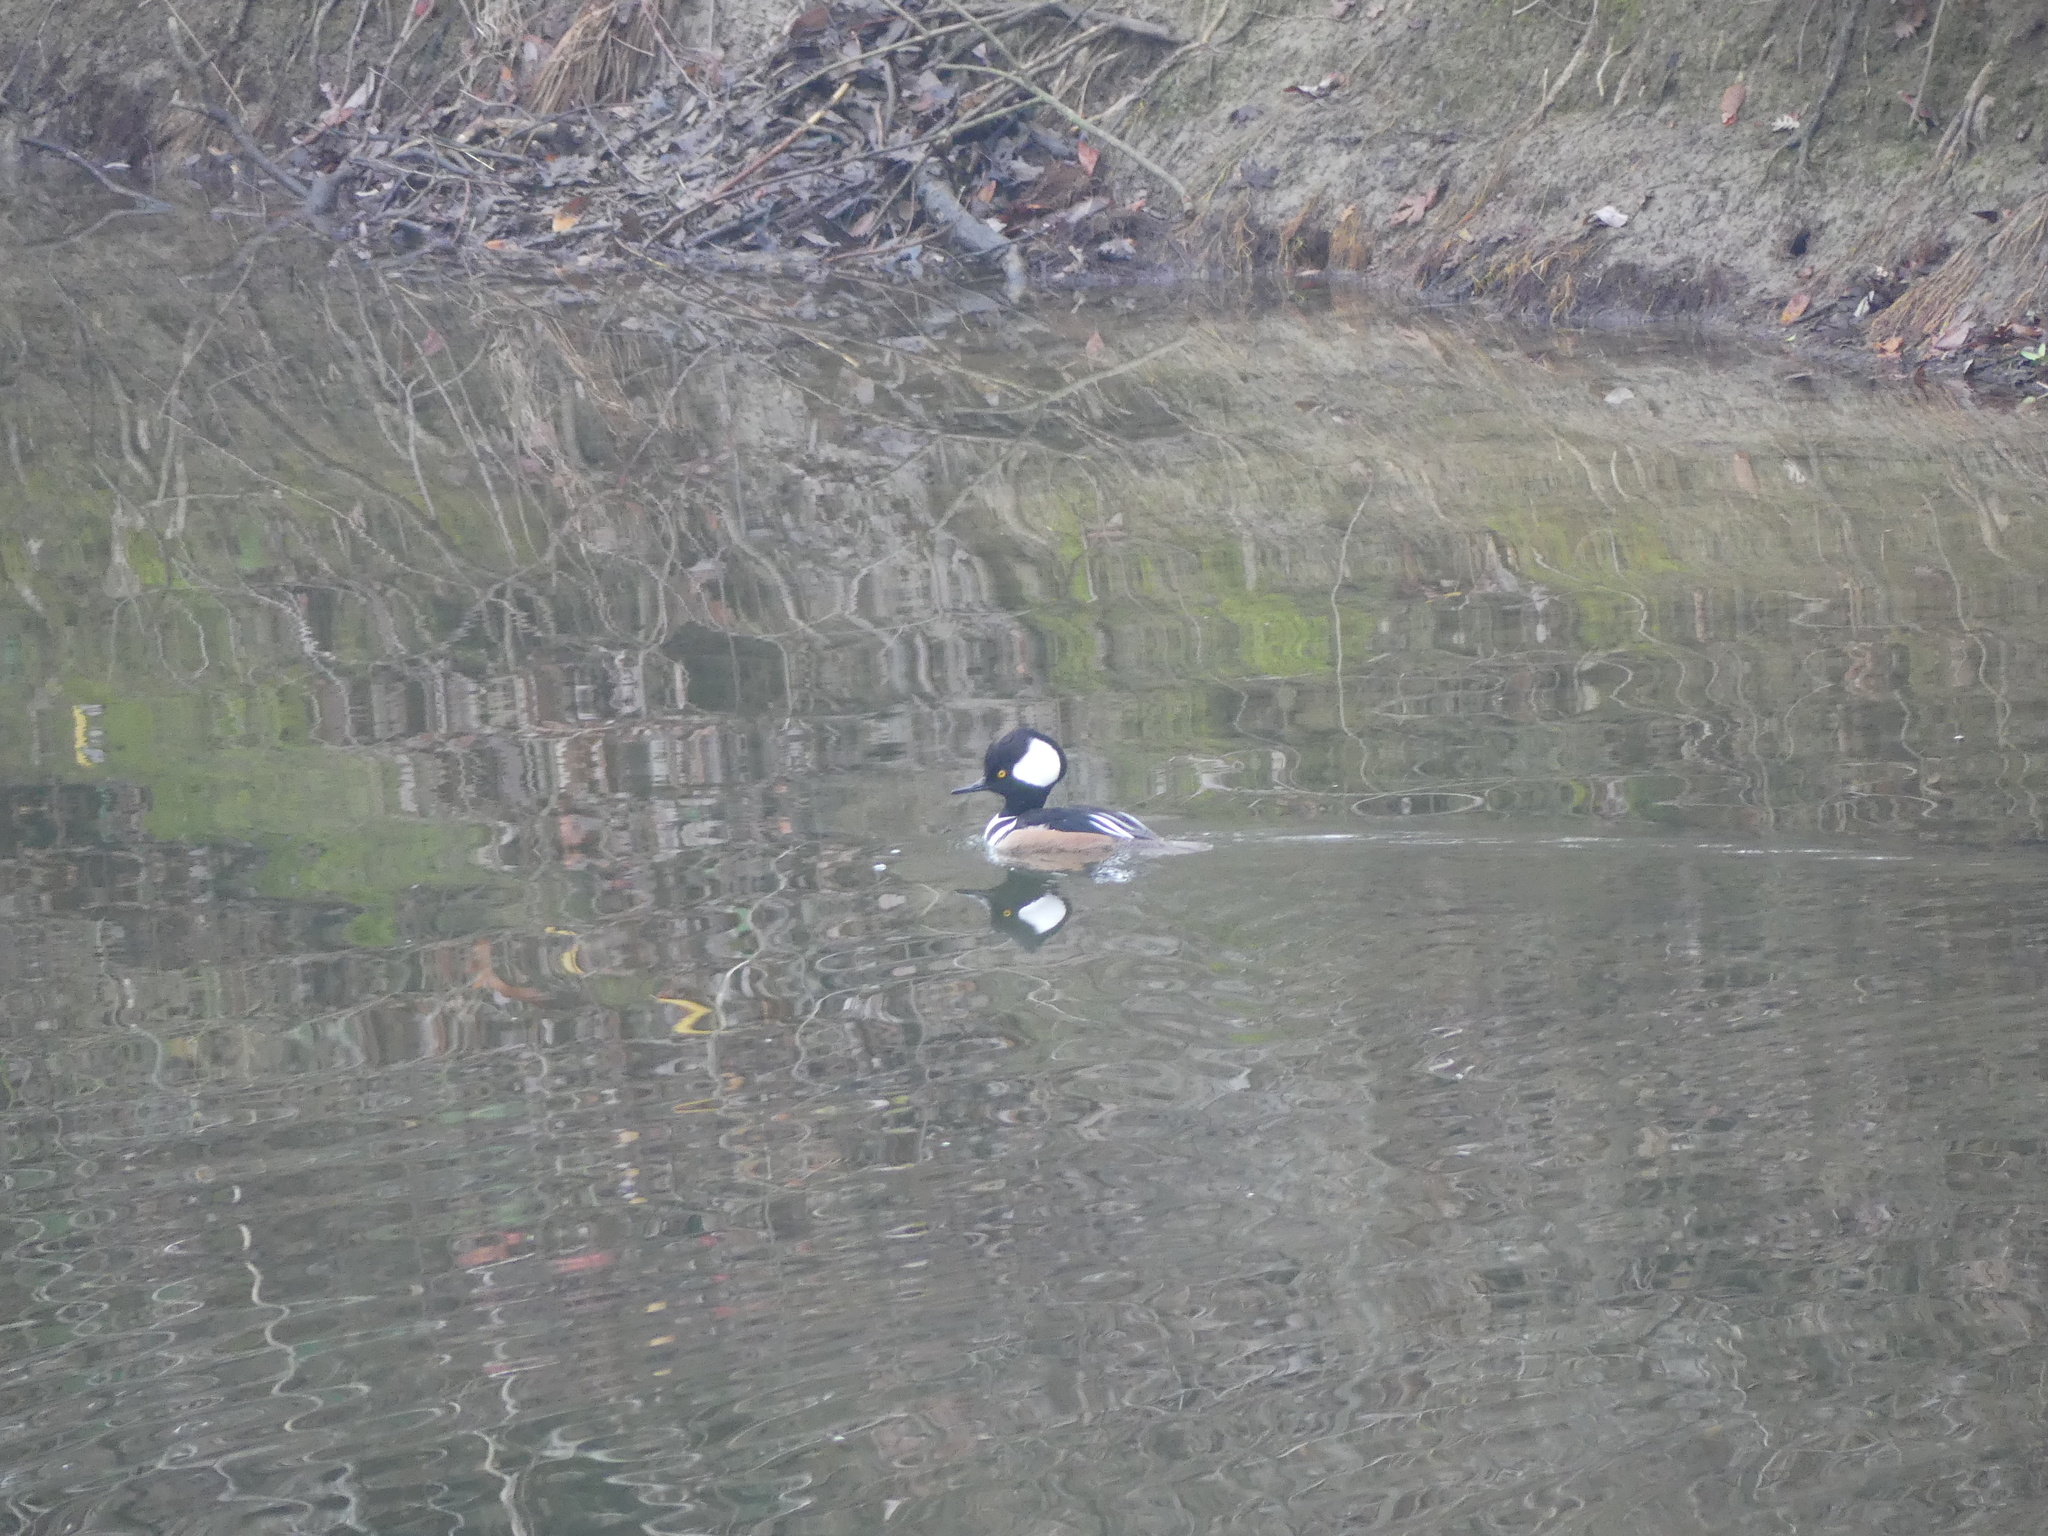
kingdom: Animalia
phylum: Chordata
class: Aves
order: Anseriformes
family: Anatidae
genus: Lophodytes
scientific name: Lophodytes cucullatus
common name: Hooded merganser
